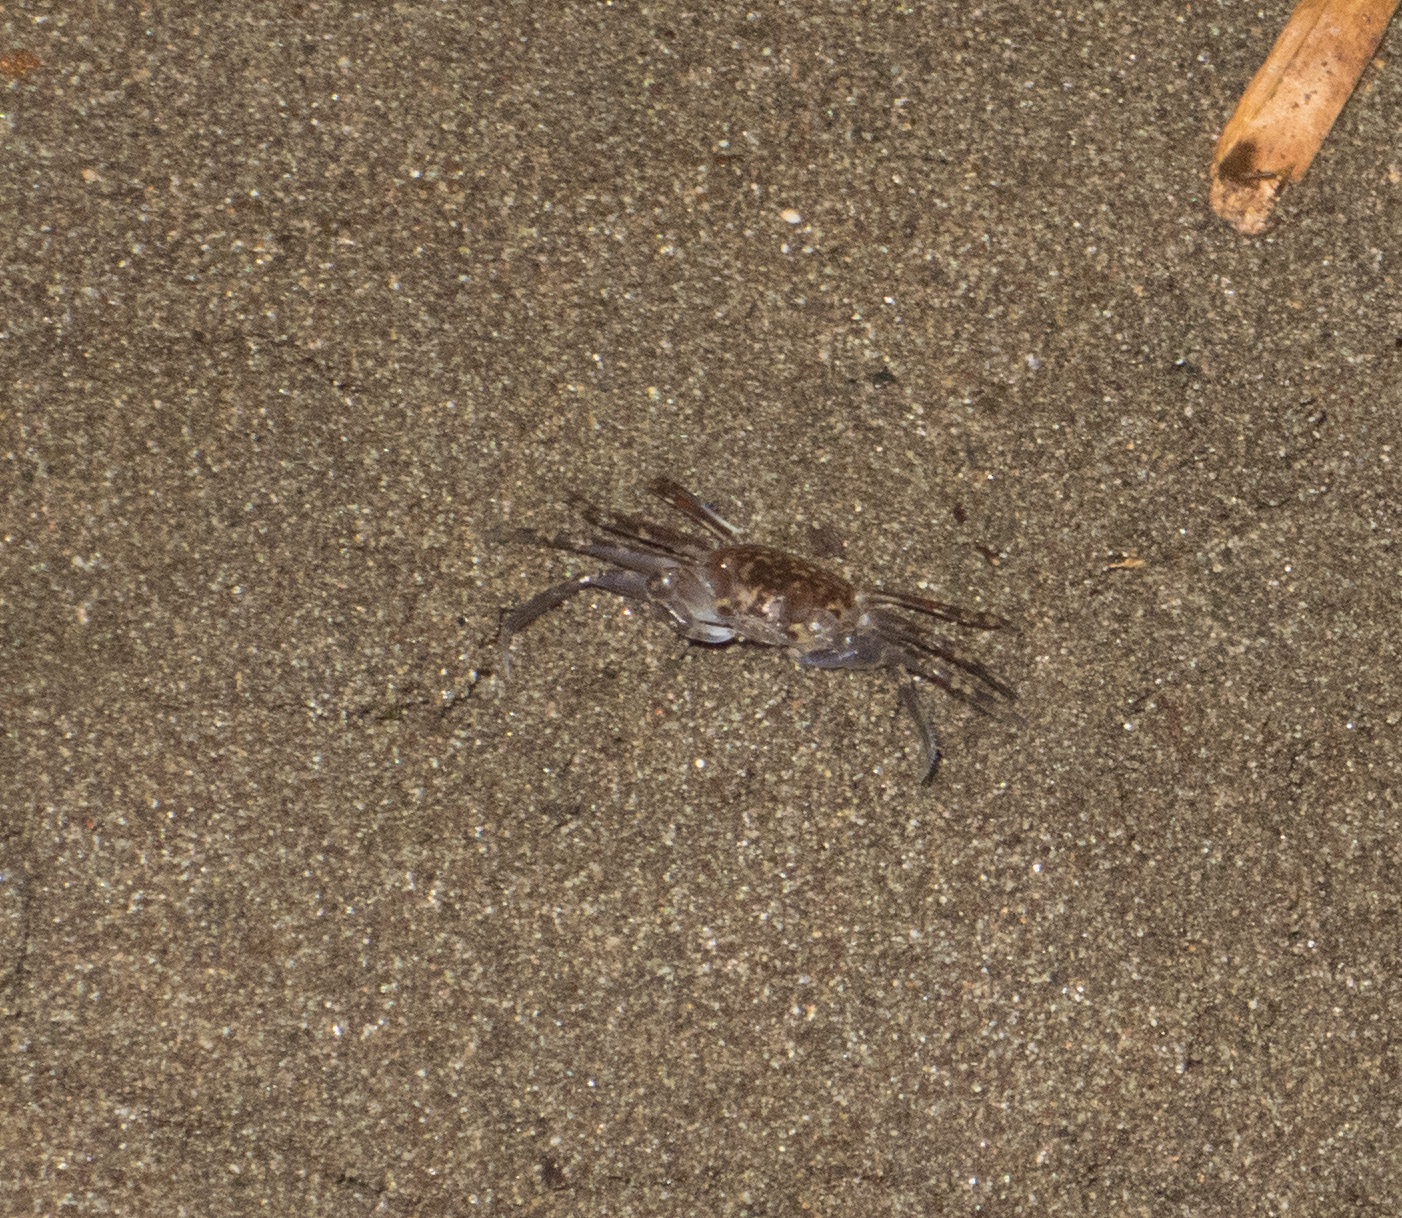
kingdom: Animalia
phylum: Arthropoda
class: Malacostraca
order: Decapoda
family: Ocypodidae
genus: Ocypode
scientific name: Ocypode occidentalis
